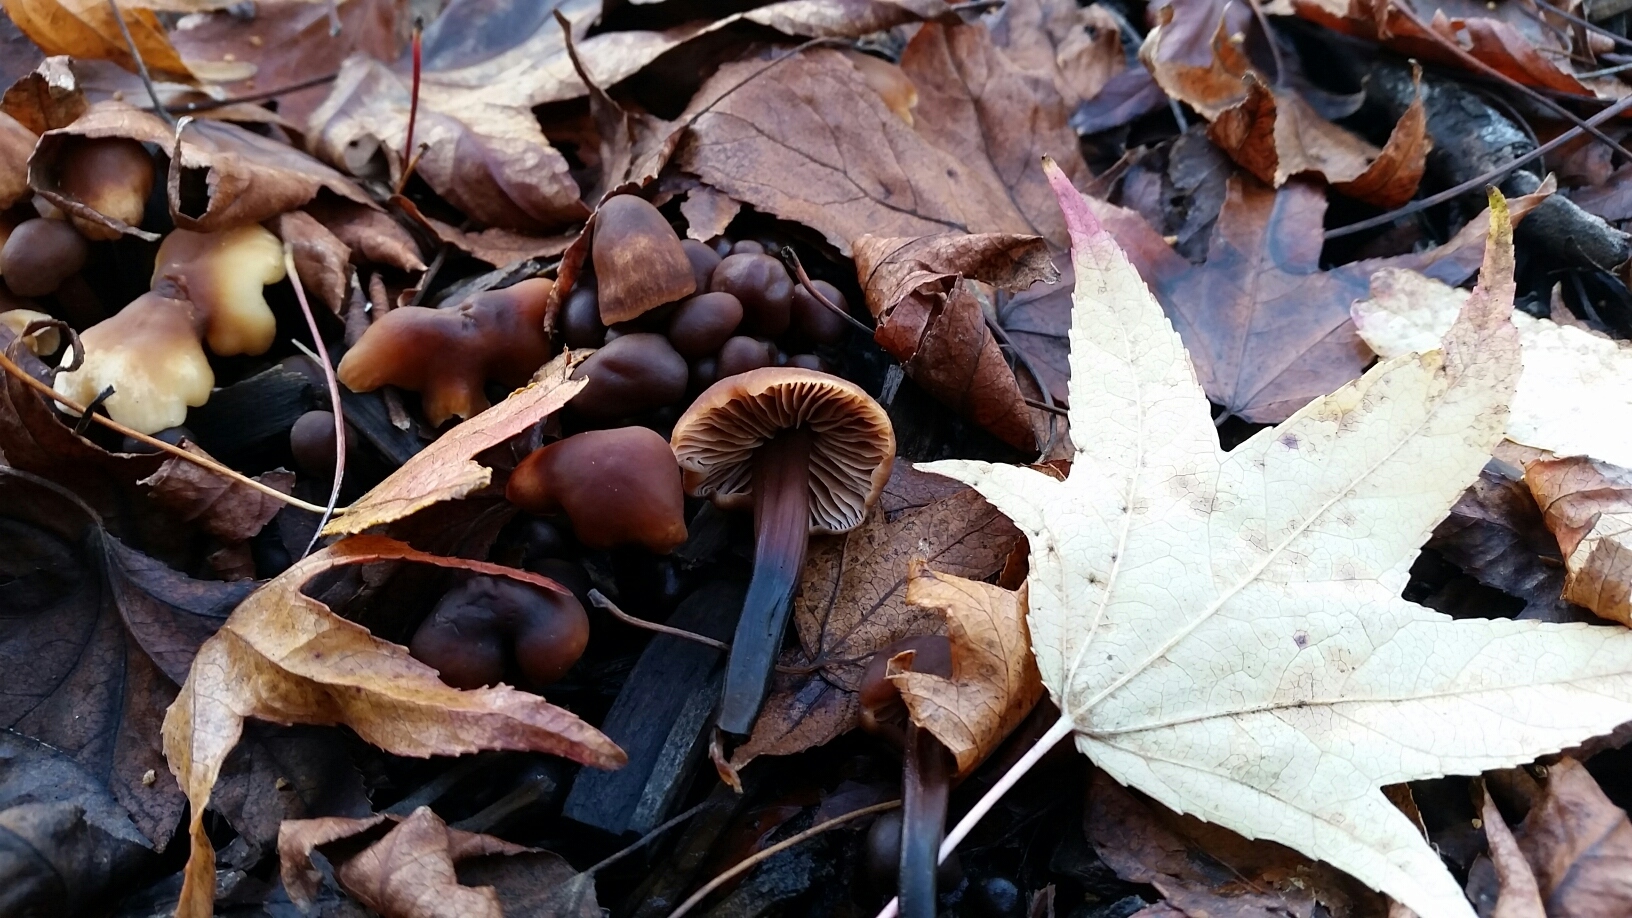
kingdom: Fungi
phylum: Basidiomycota
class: Agaricomycetes
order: Agaricales
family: Omphalotaceae
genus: Gymnopus
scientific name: Gymnopus brassicolens
